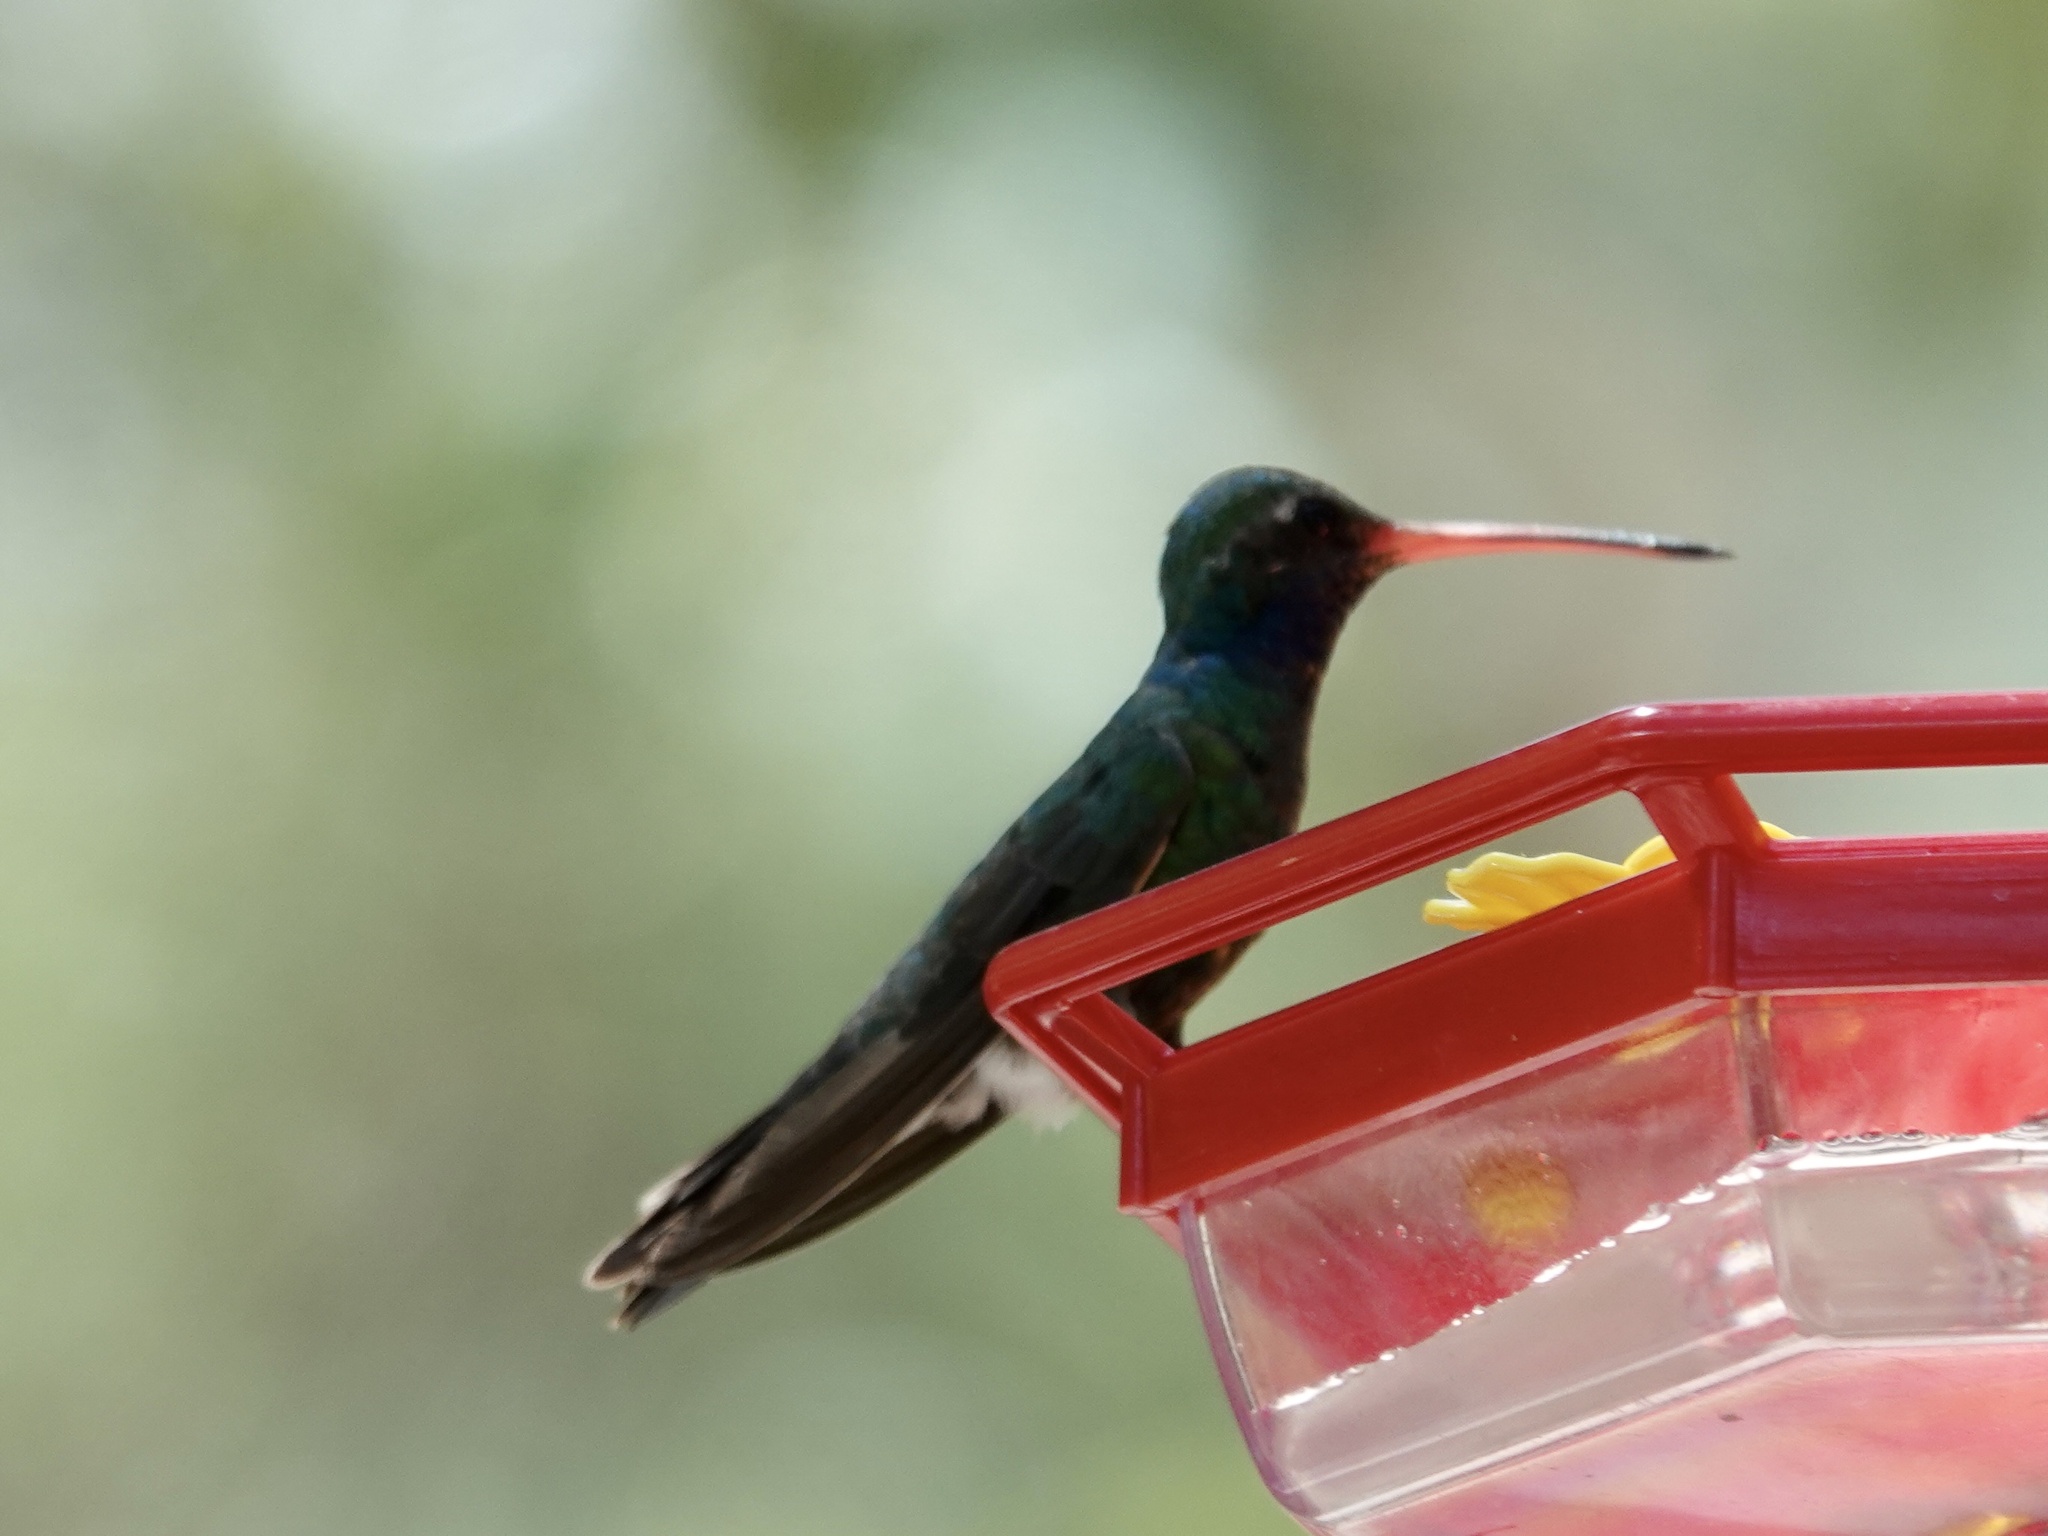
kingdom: Animalia
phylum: Chordata
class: Aves
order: Apodiformes
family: Trochilidae
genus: Cynanthus
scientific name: Cynanthus latirostris
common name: Broad-billed hummingbird
